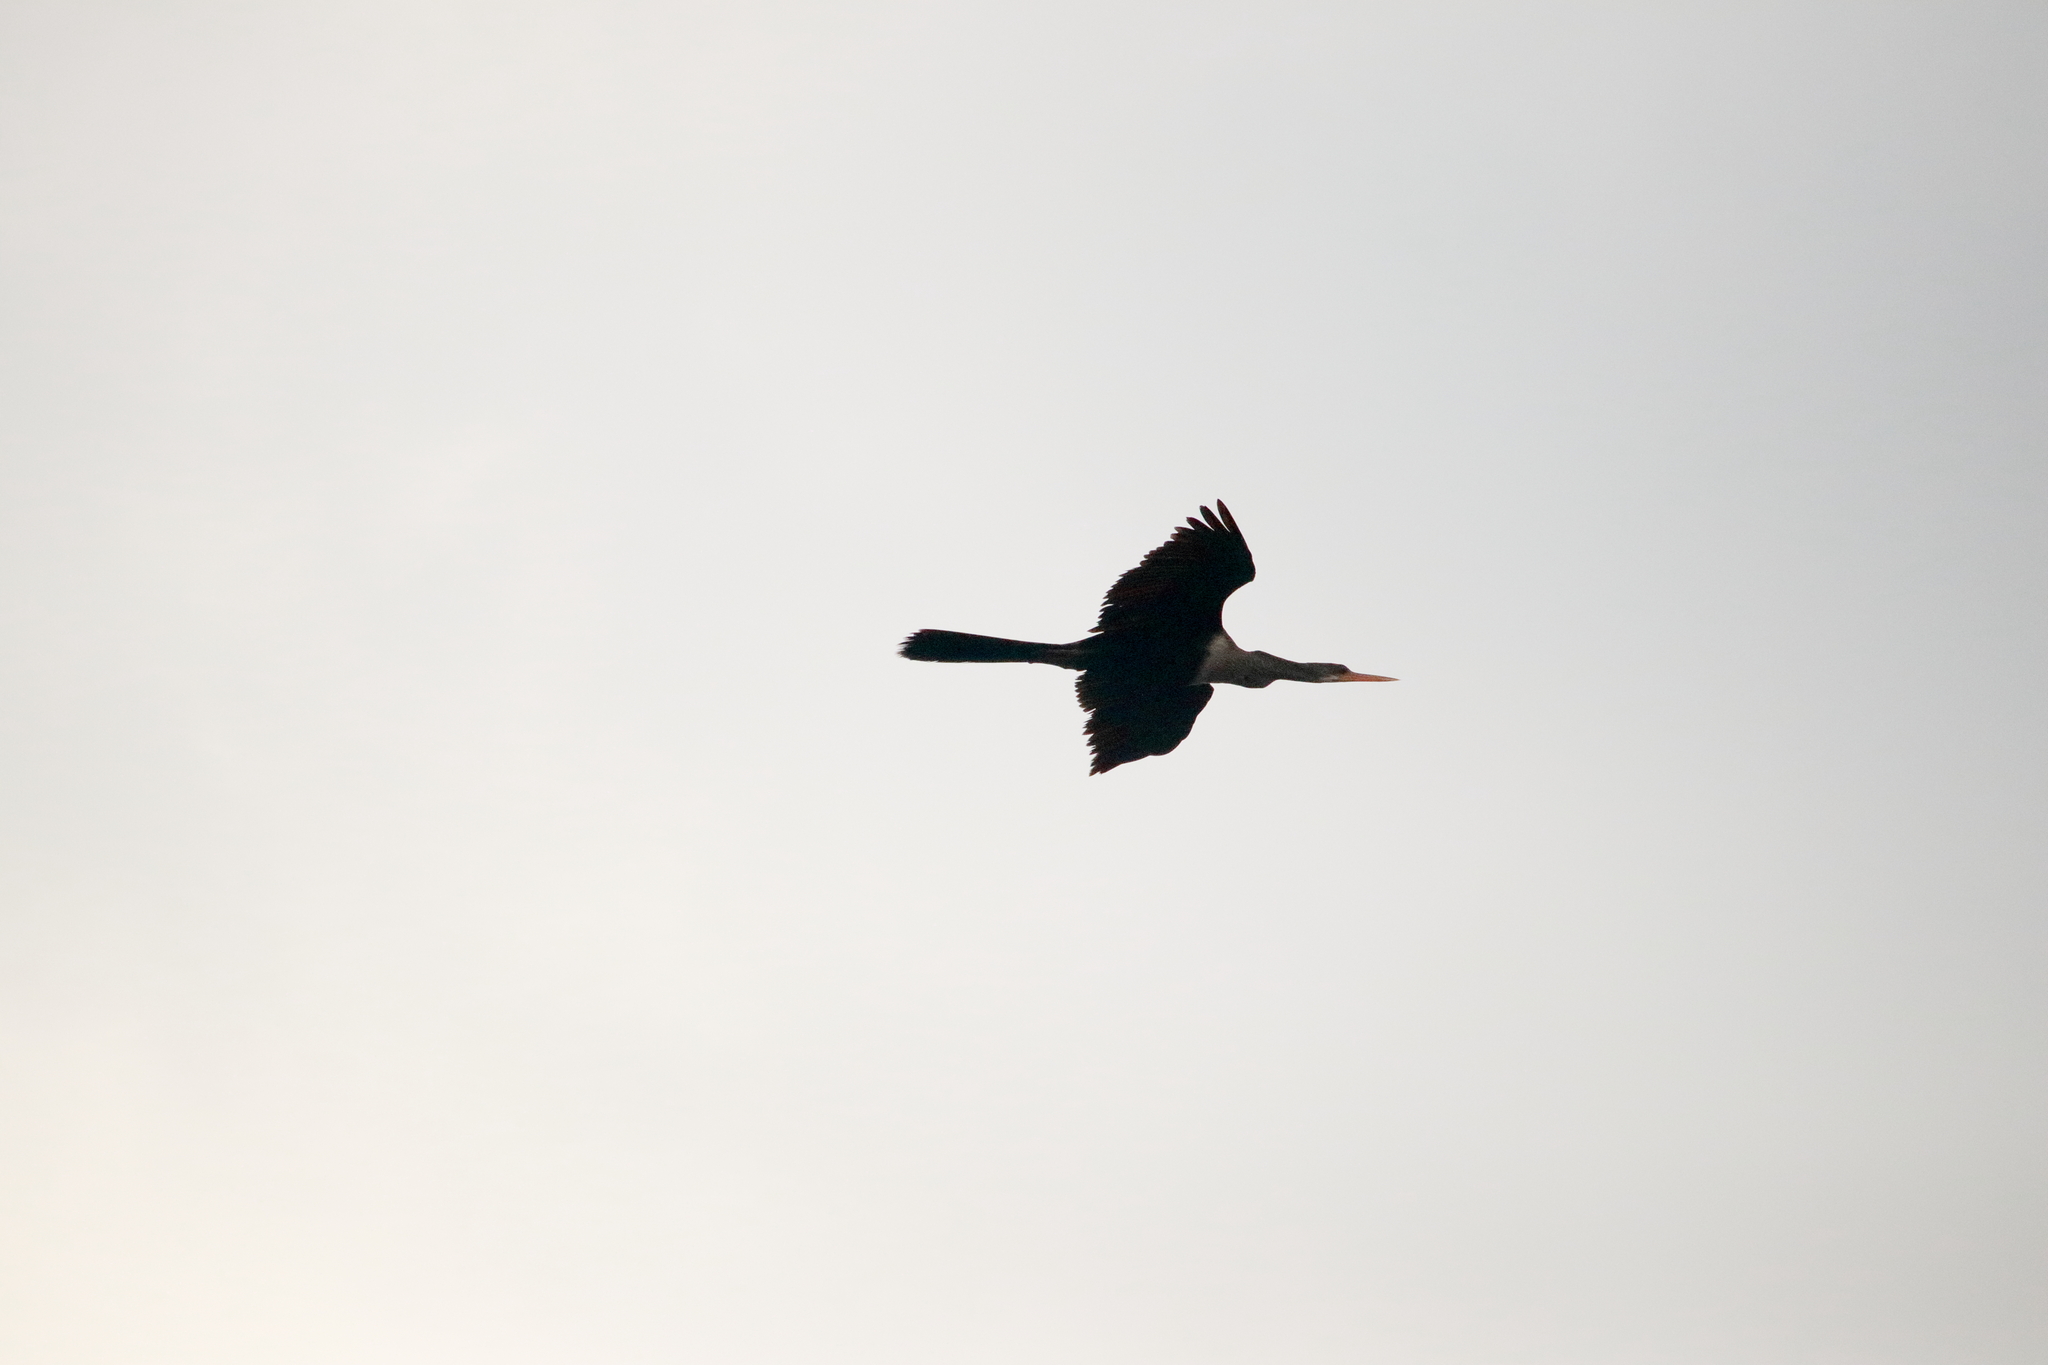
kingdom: Animalia
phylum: Chordata
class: Aves
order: Suliformes
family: Anhingidae
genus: Anhinga
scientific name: Anhinga anhinga
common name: Anhinga
